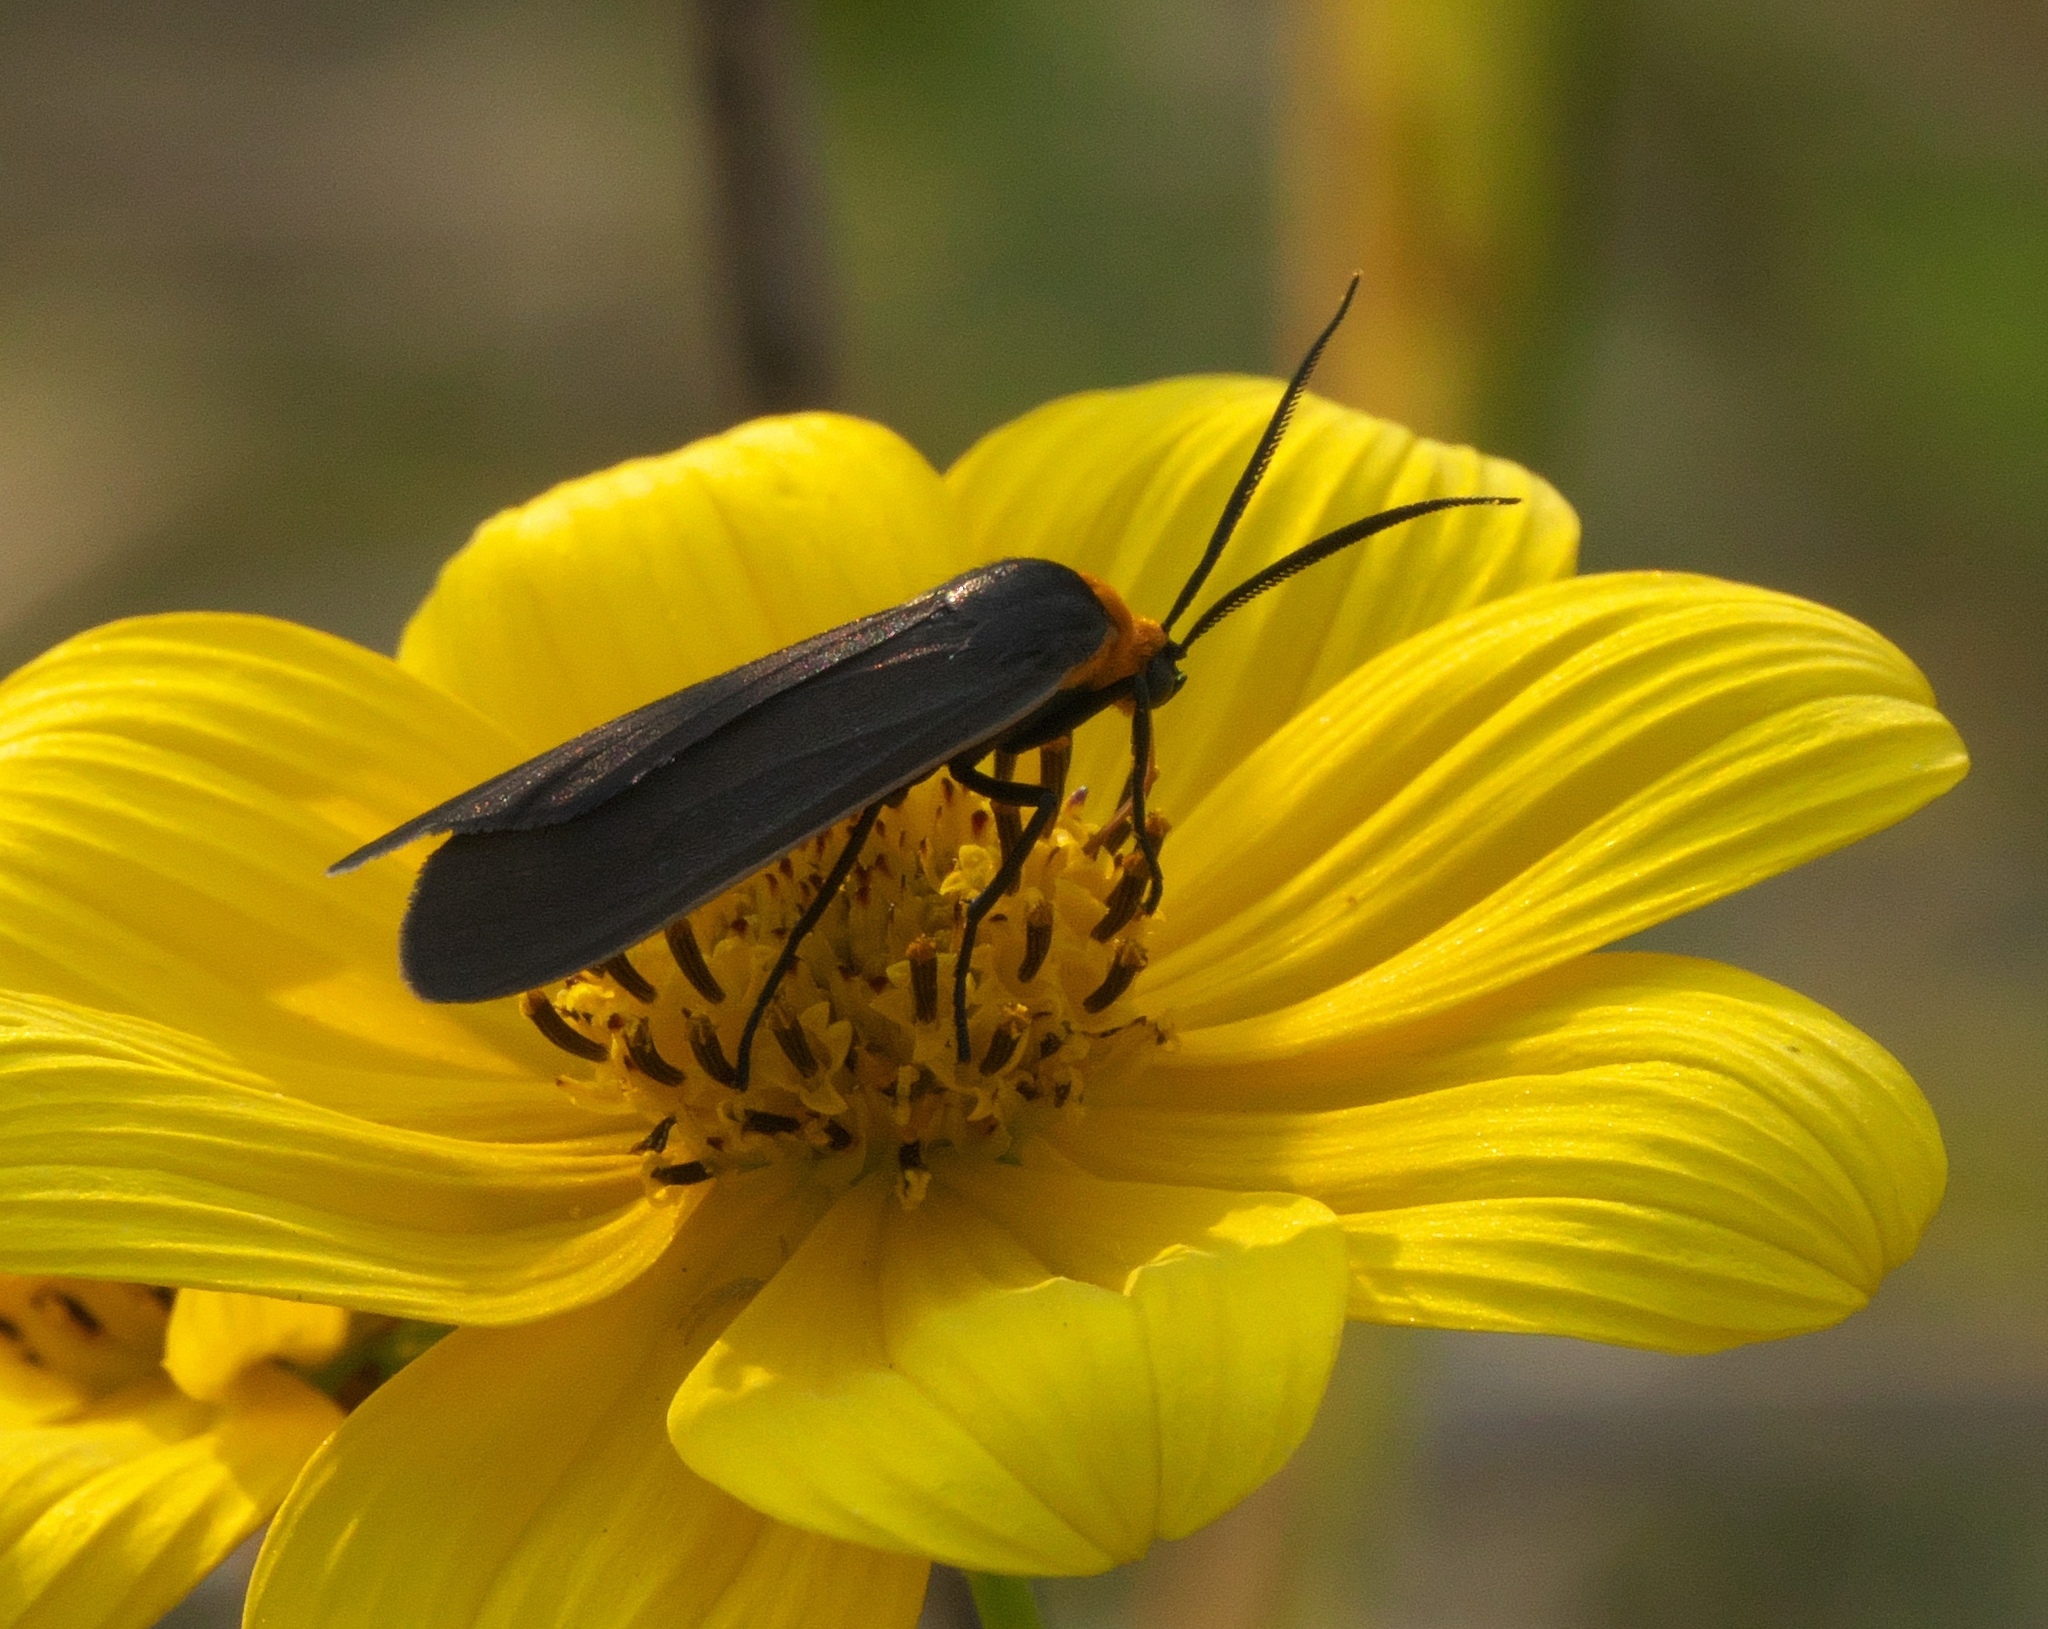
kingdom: Animalia
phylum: Arthropoda
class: Insecta
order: Lepidoptera
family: Erebidae
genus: Cisseps
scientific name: Cisseps fulvicollis
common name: Yellow-collared scape moth
